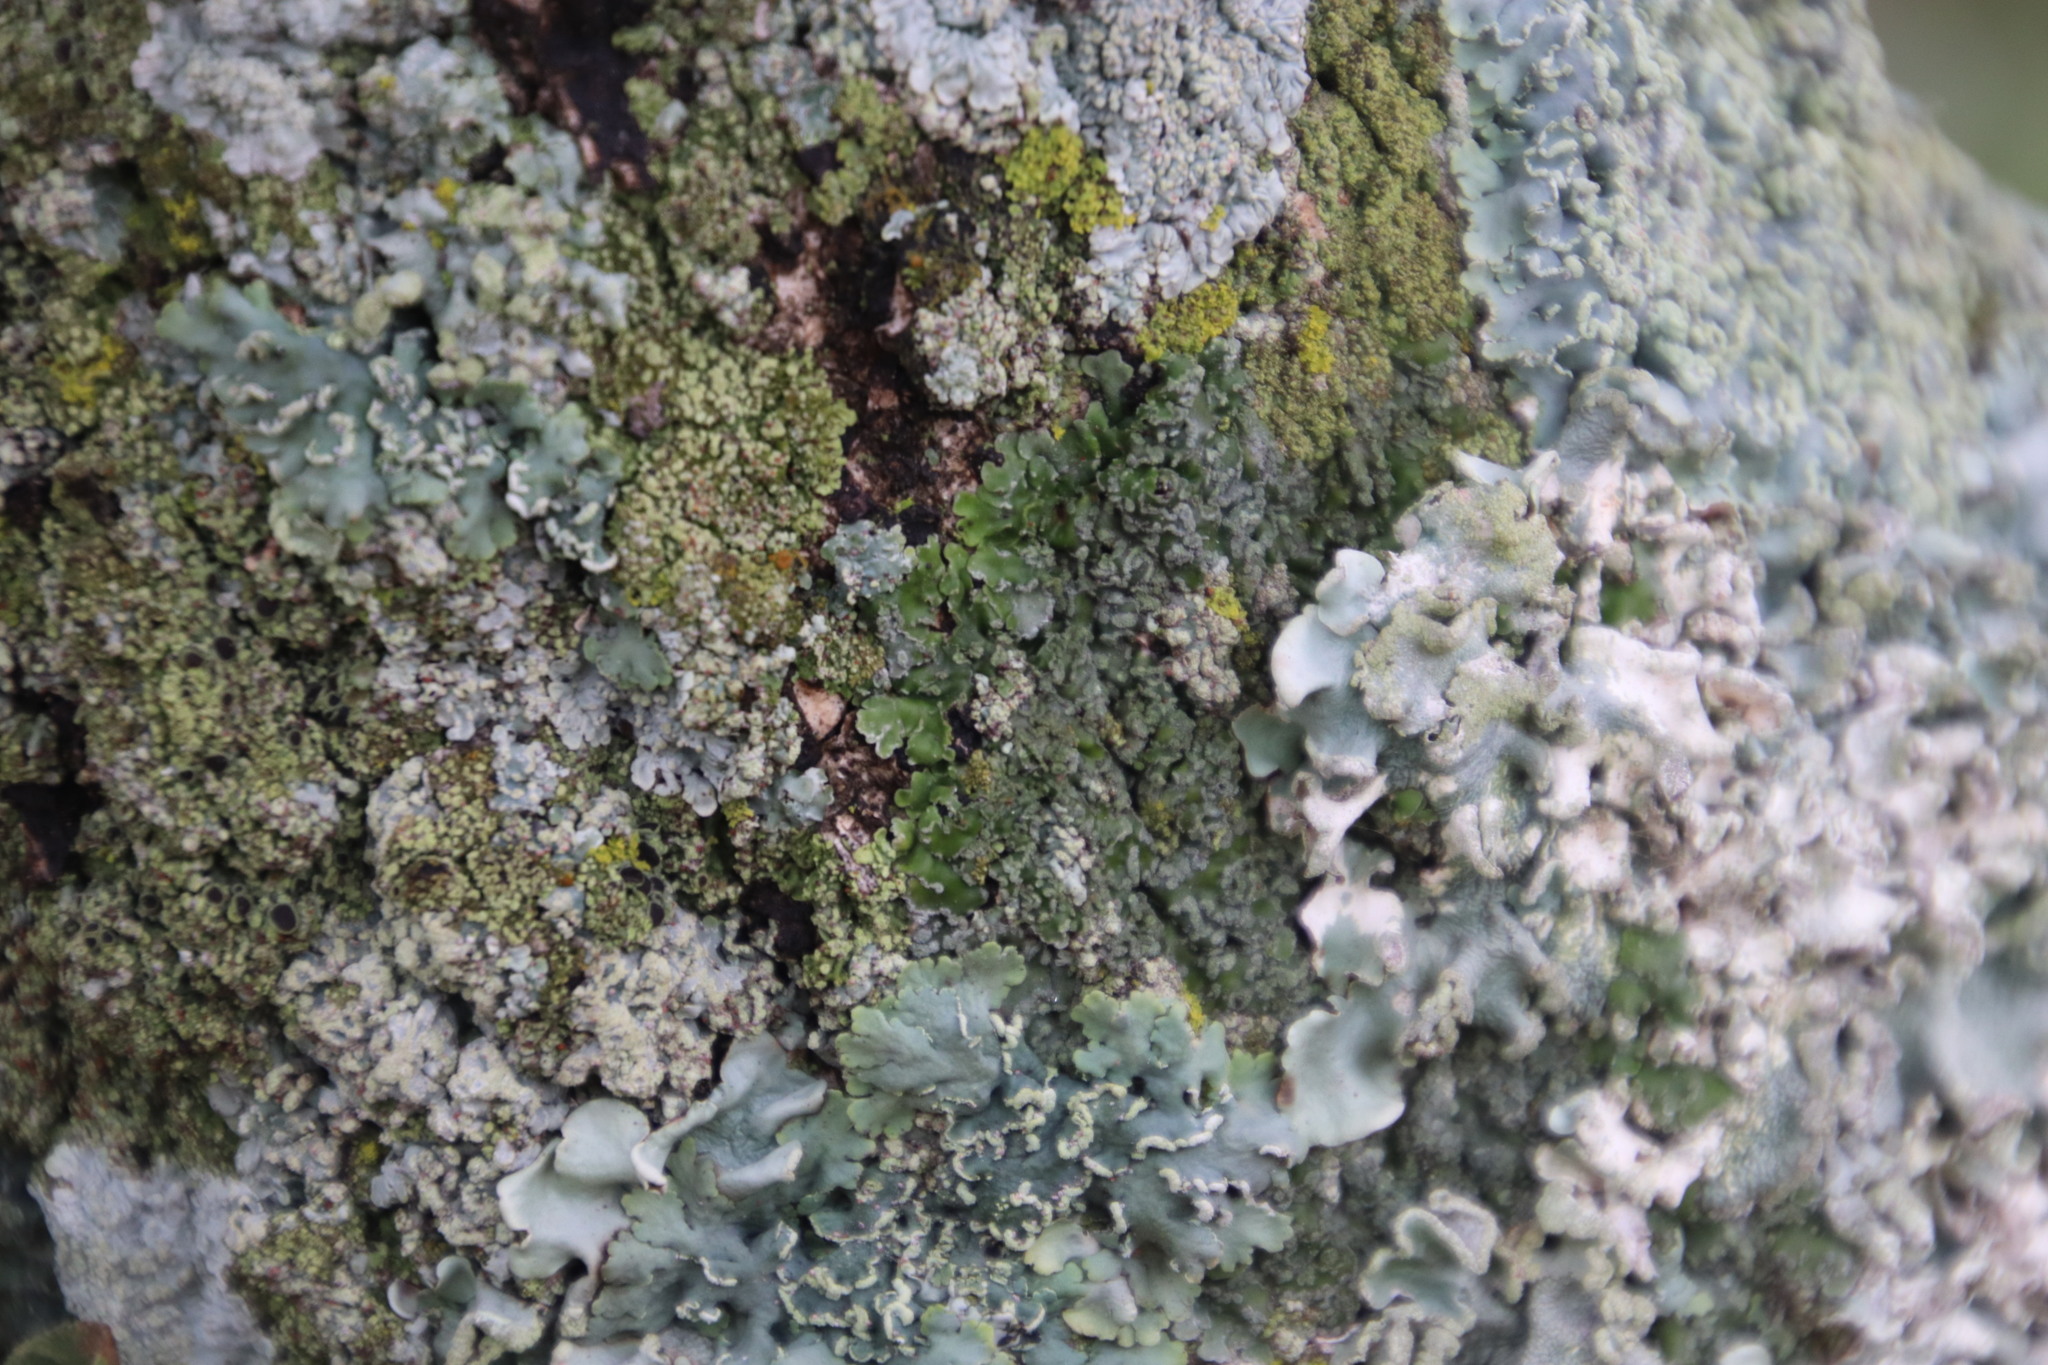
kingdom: Fungi
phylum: Ascomycota
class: Lecanoromycetes
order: Caliciales
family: Physciaceae
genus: Physconia
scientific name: Physconia perisidiosa
